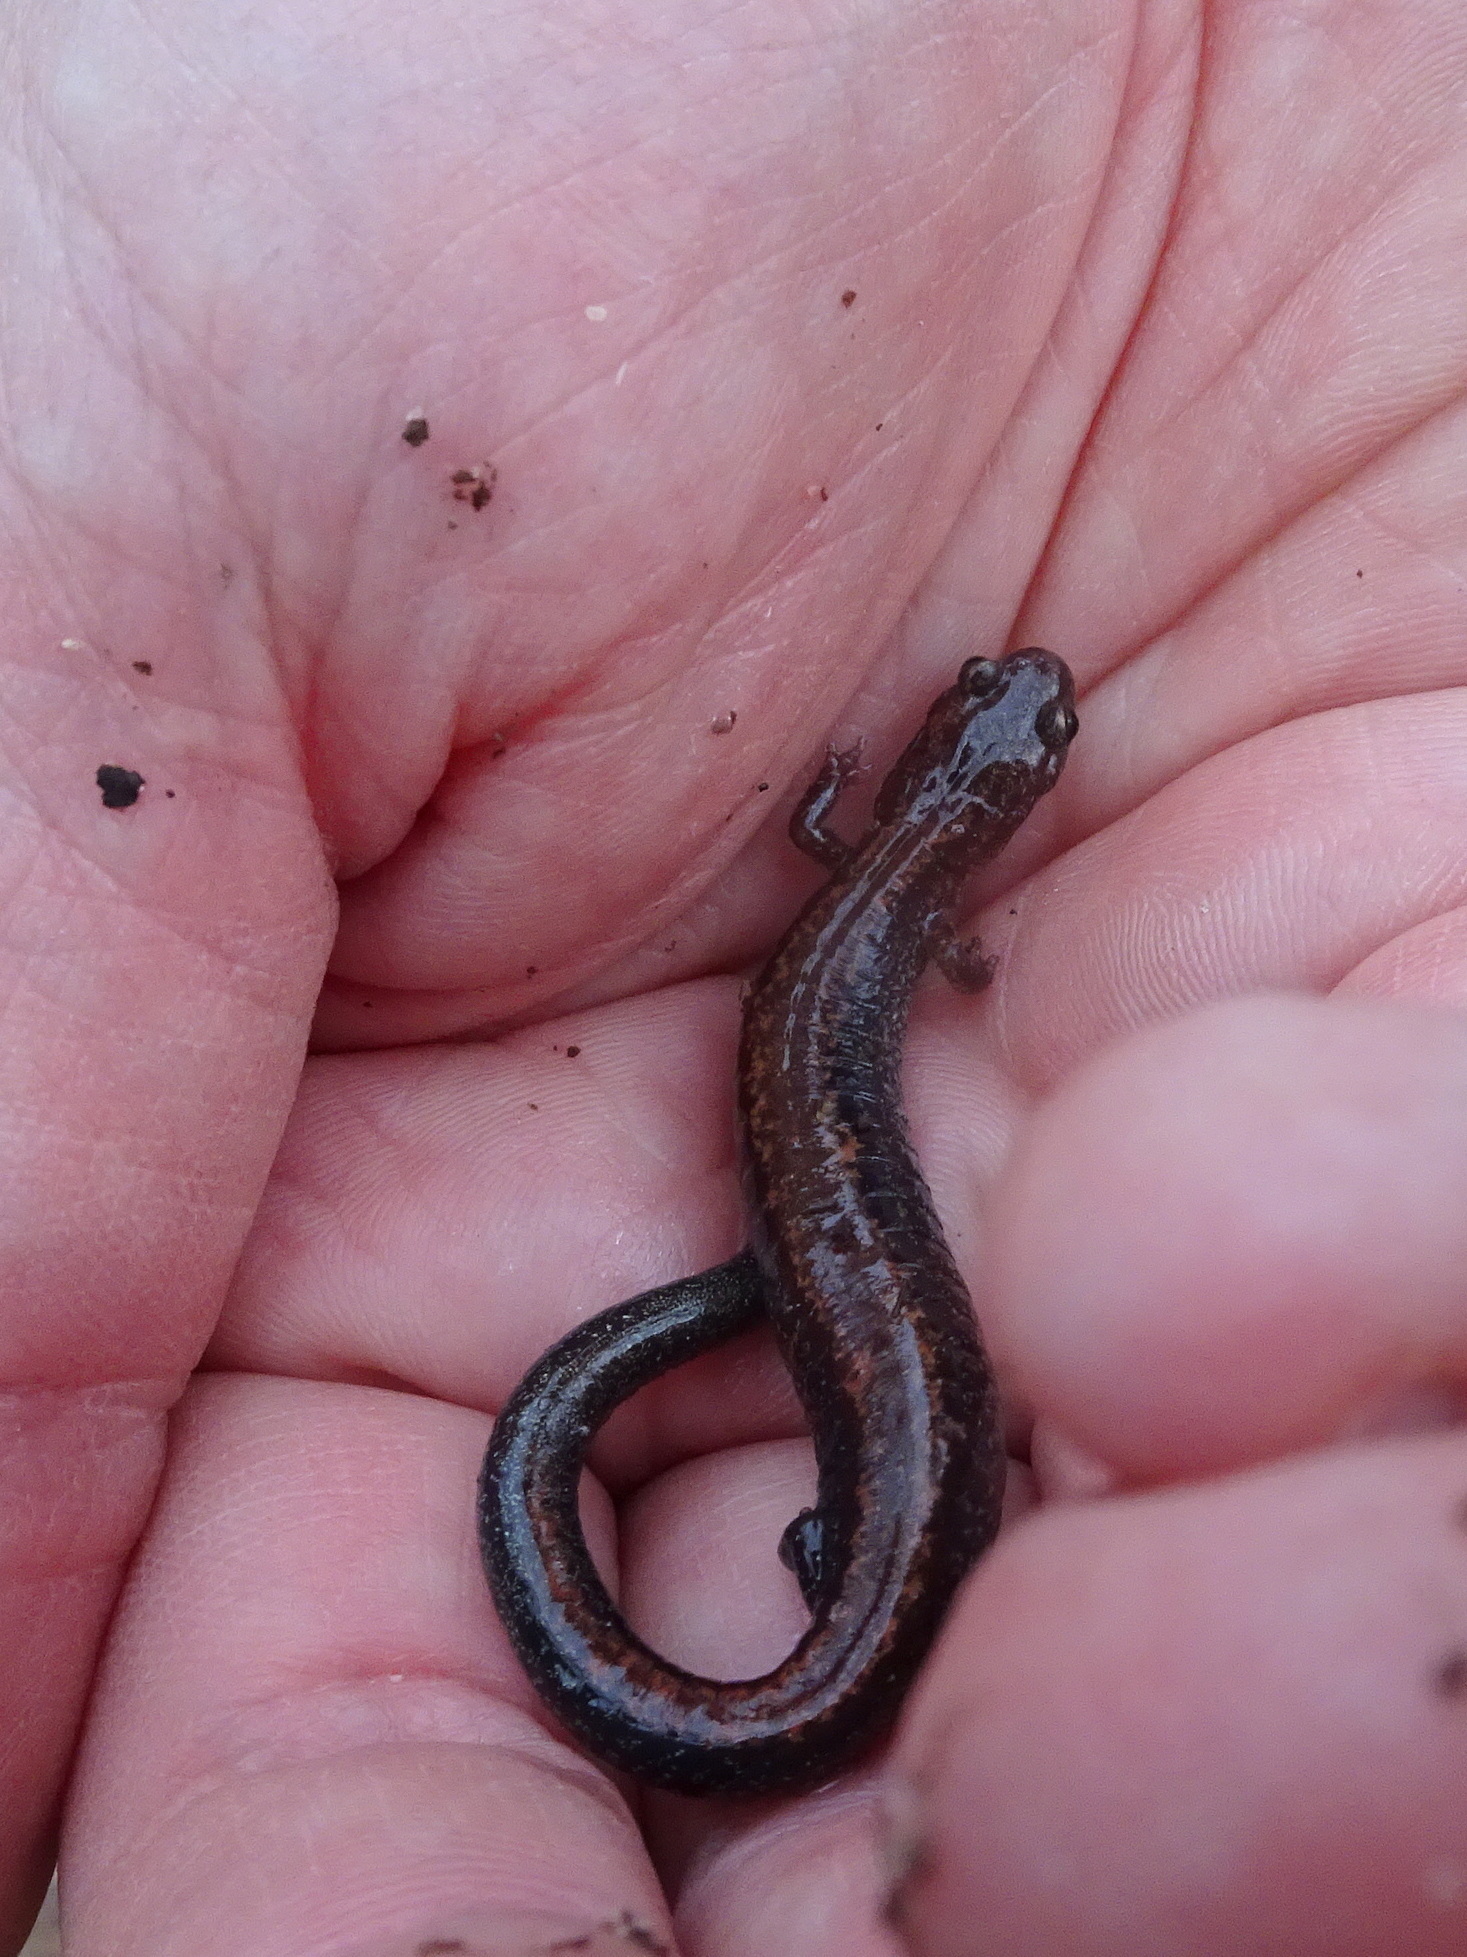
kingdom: Animalia
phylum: Chordata
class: Amphibia
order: Caudata
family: Plethodontidae
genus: Plethodon
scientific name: Plethodon cinereus
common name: Redback salamander
